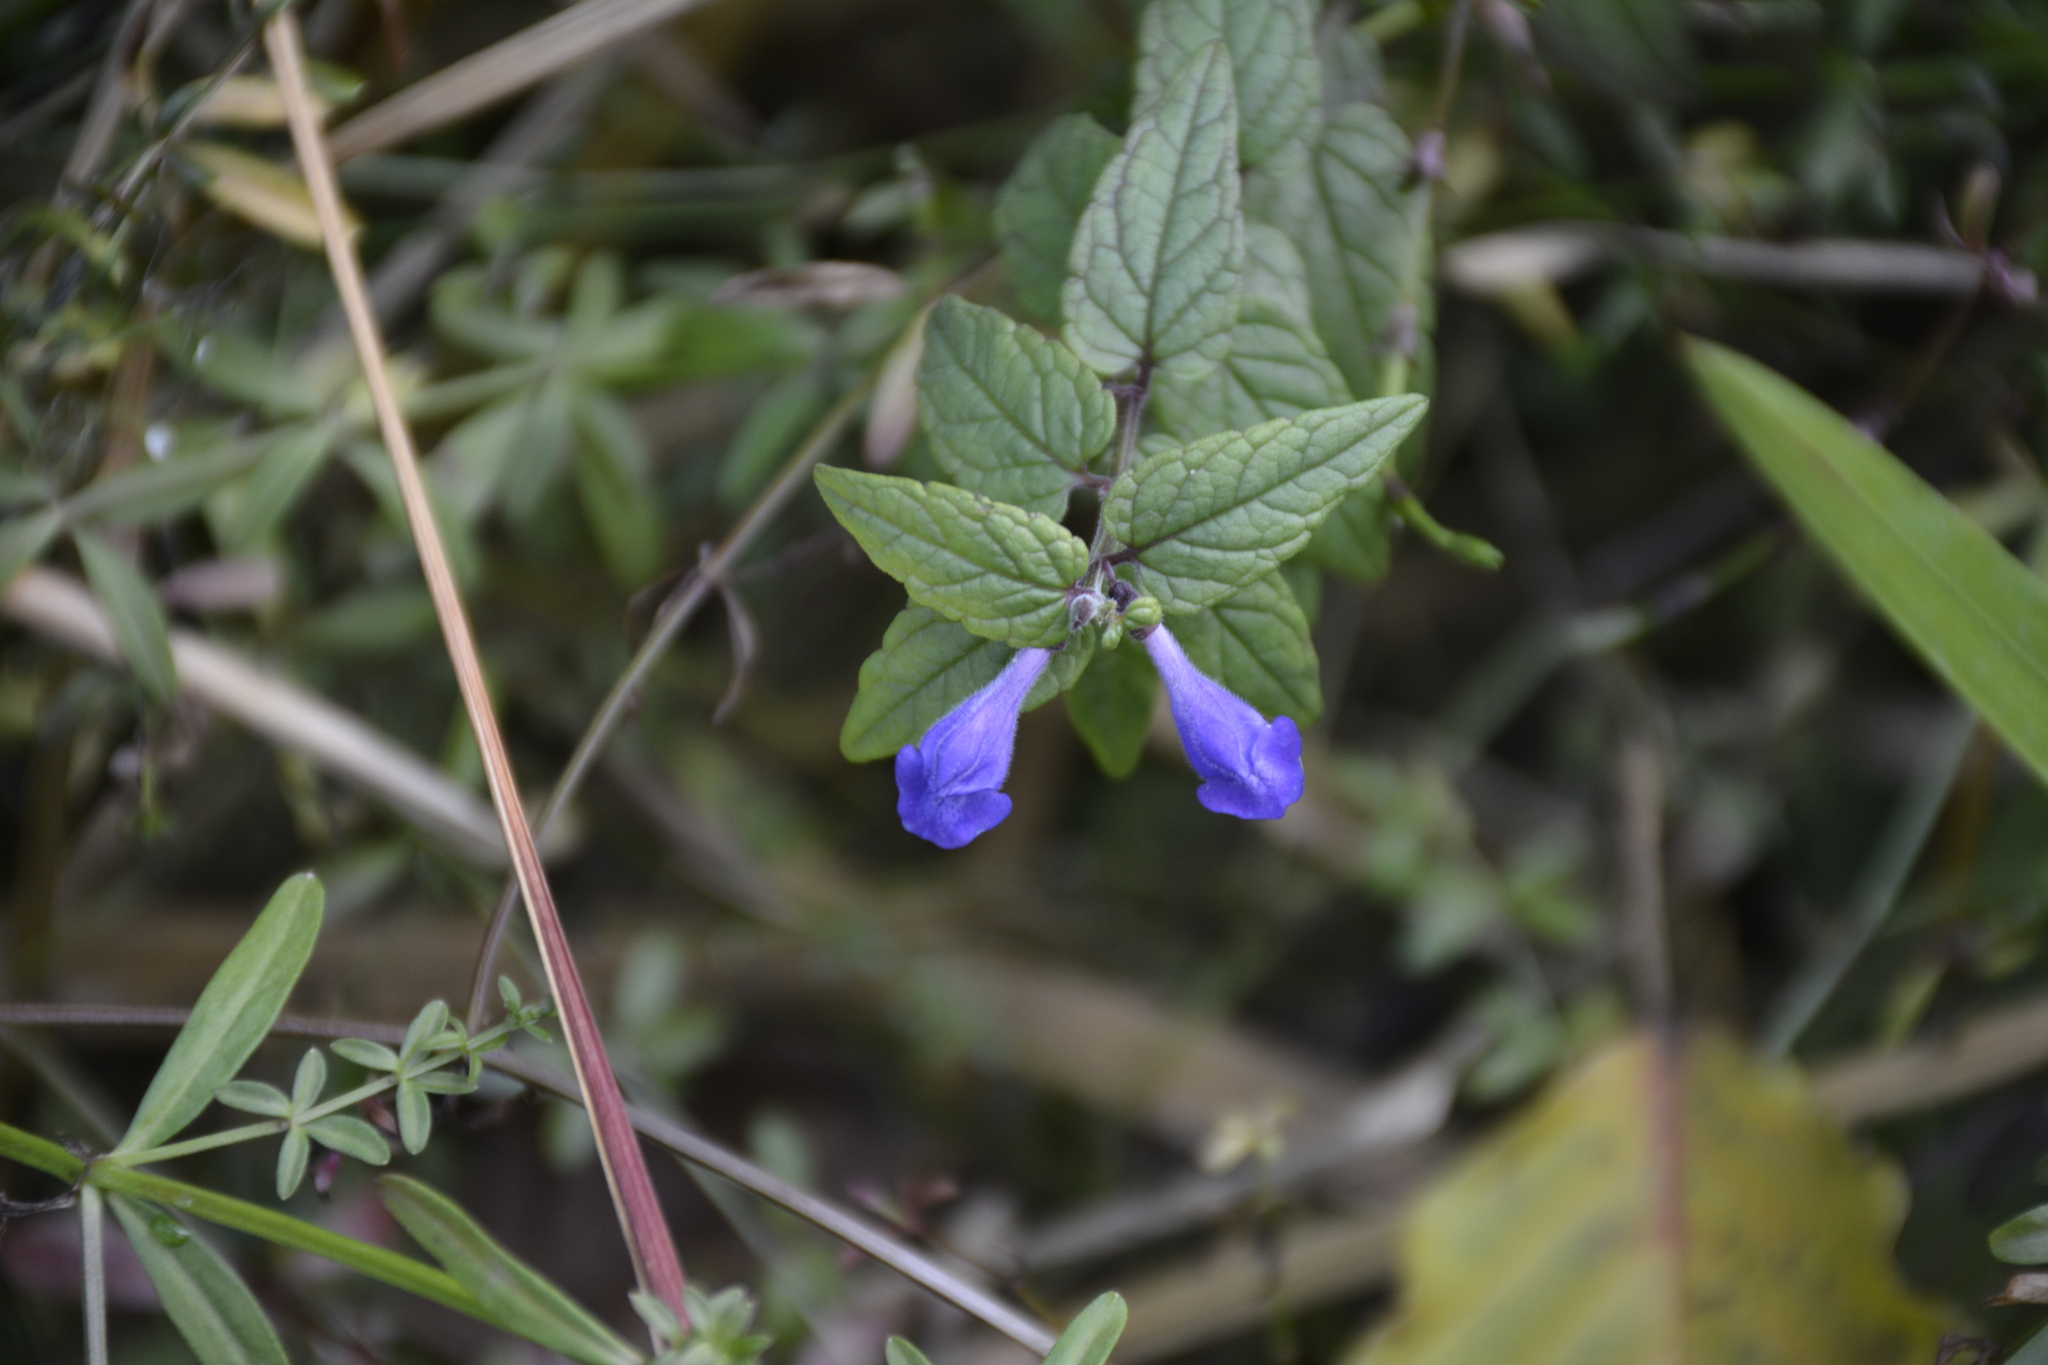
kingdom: Plantae
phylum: Tracheophyta
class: Magnoliopsida
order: Lamiales
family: Lamiaceae
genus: Scutellaria
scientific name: Scutellaria galericulata
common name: Skullcap
